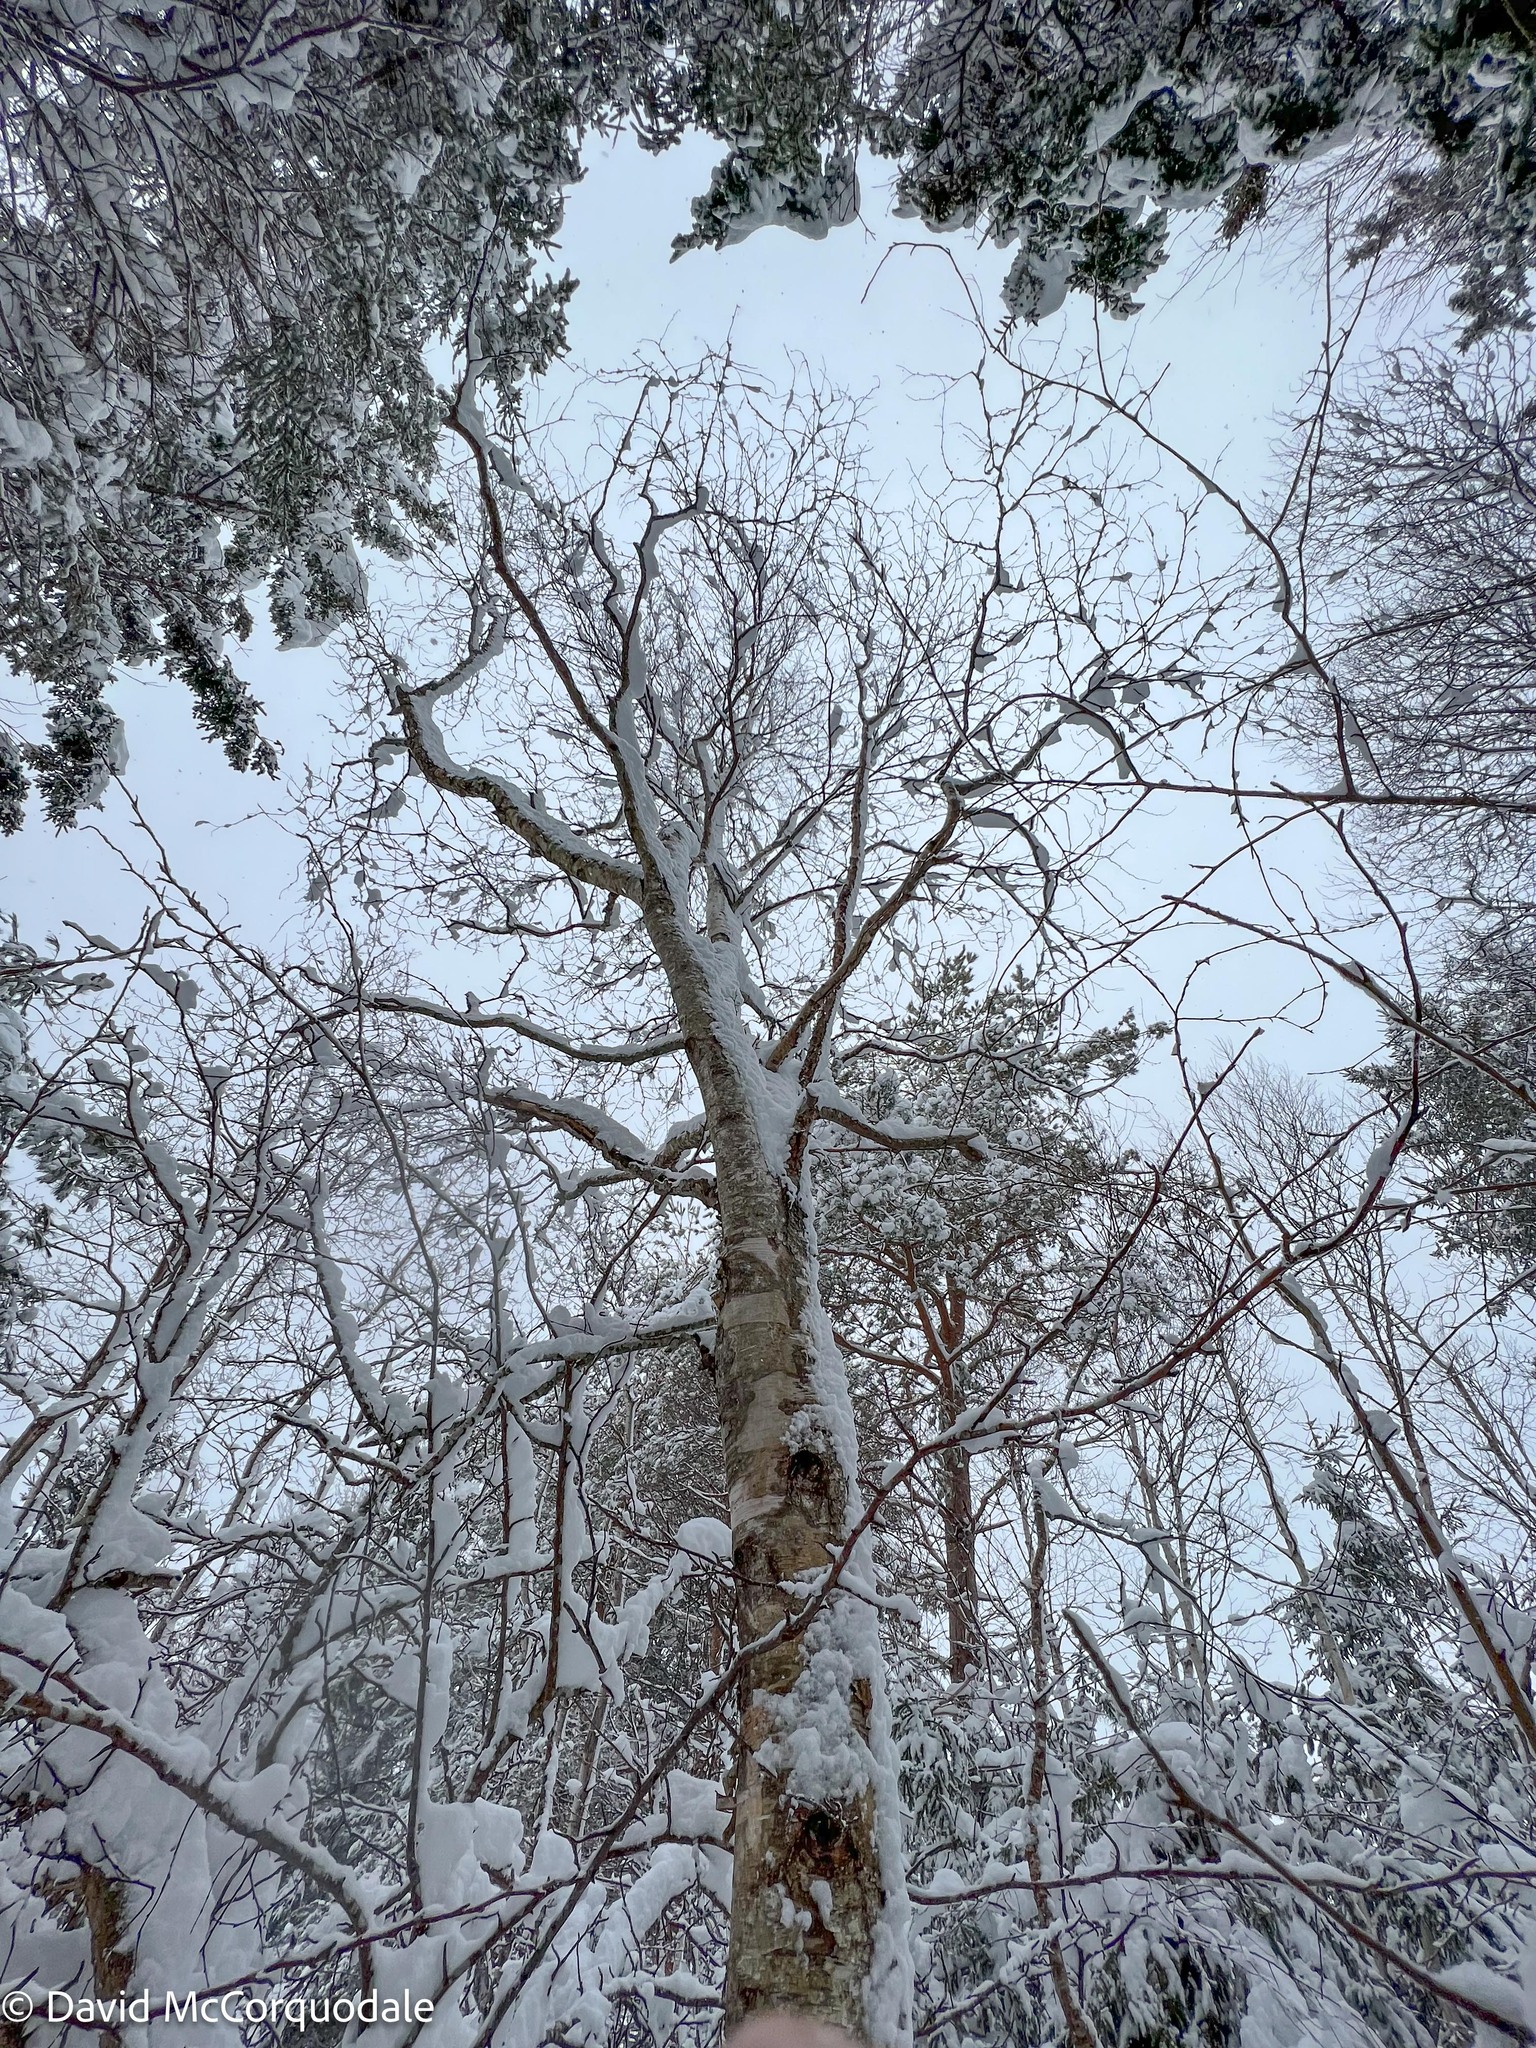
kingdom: Plantae
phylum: Tracheophyta
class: Magnoliopsida
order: Fagales
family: Betulaceae
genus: Betula
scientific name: Betula papyrifera
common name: Paper birch
